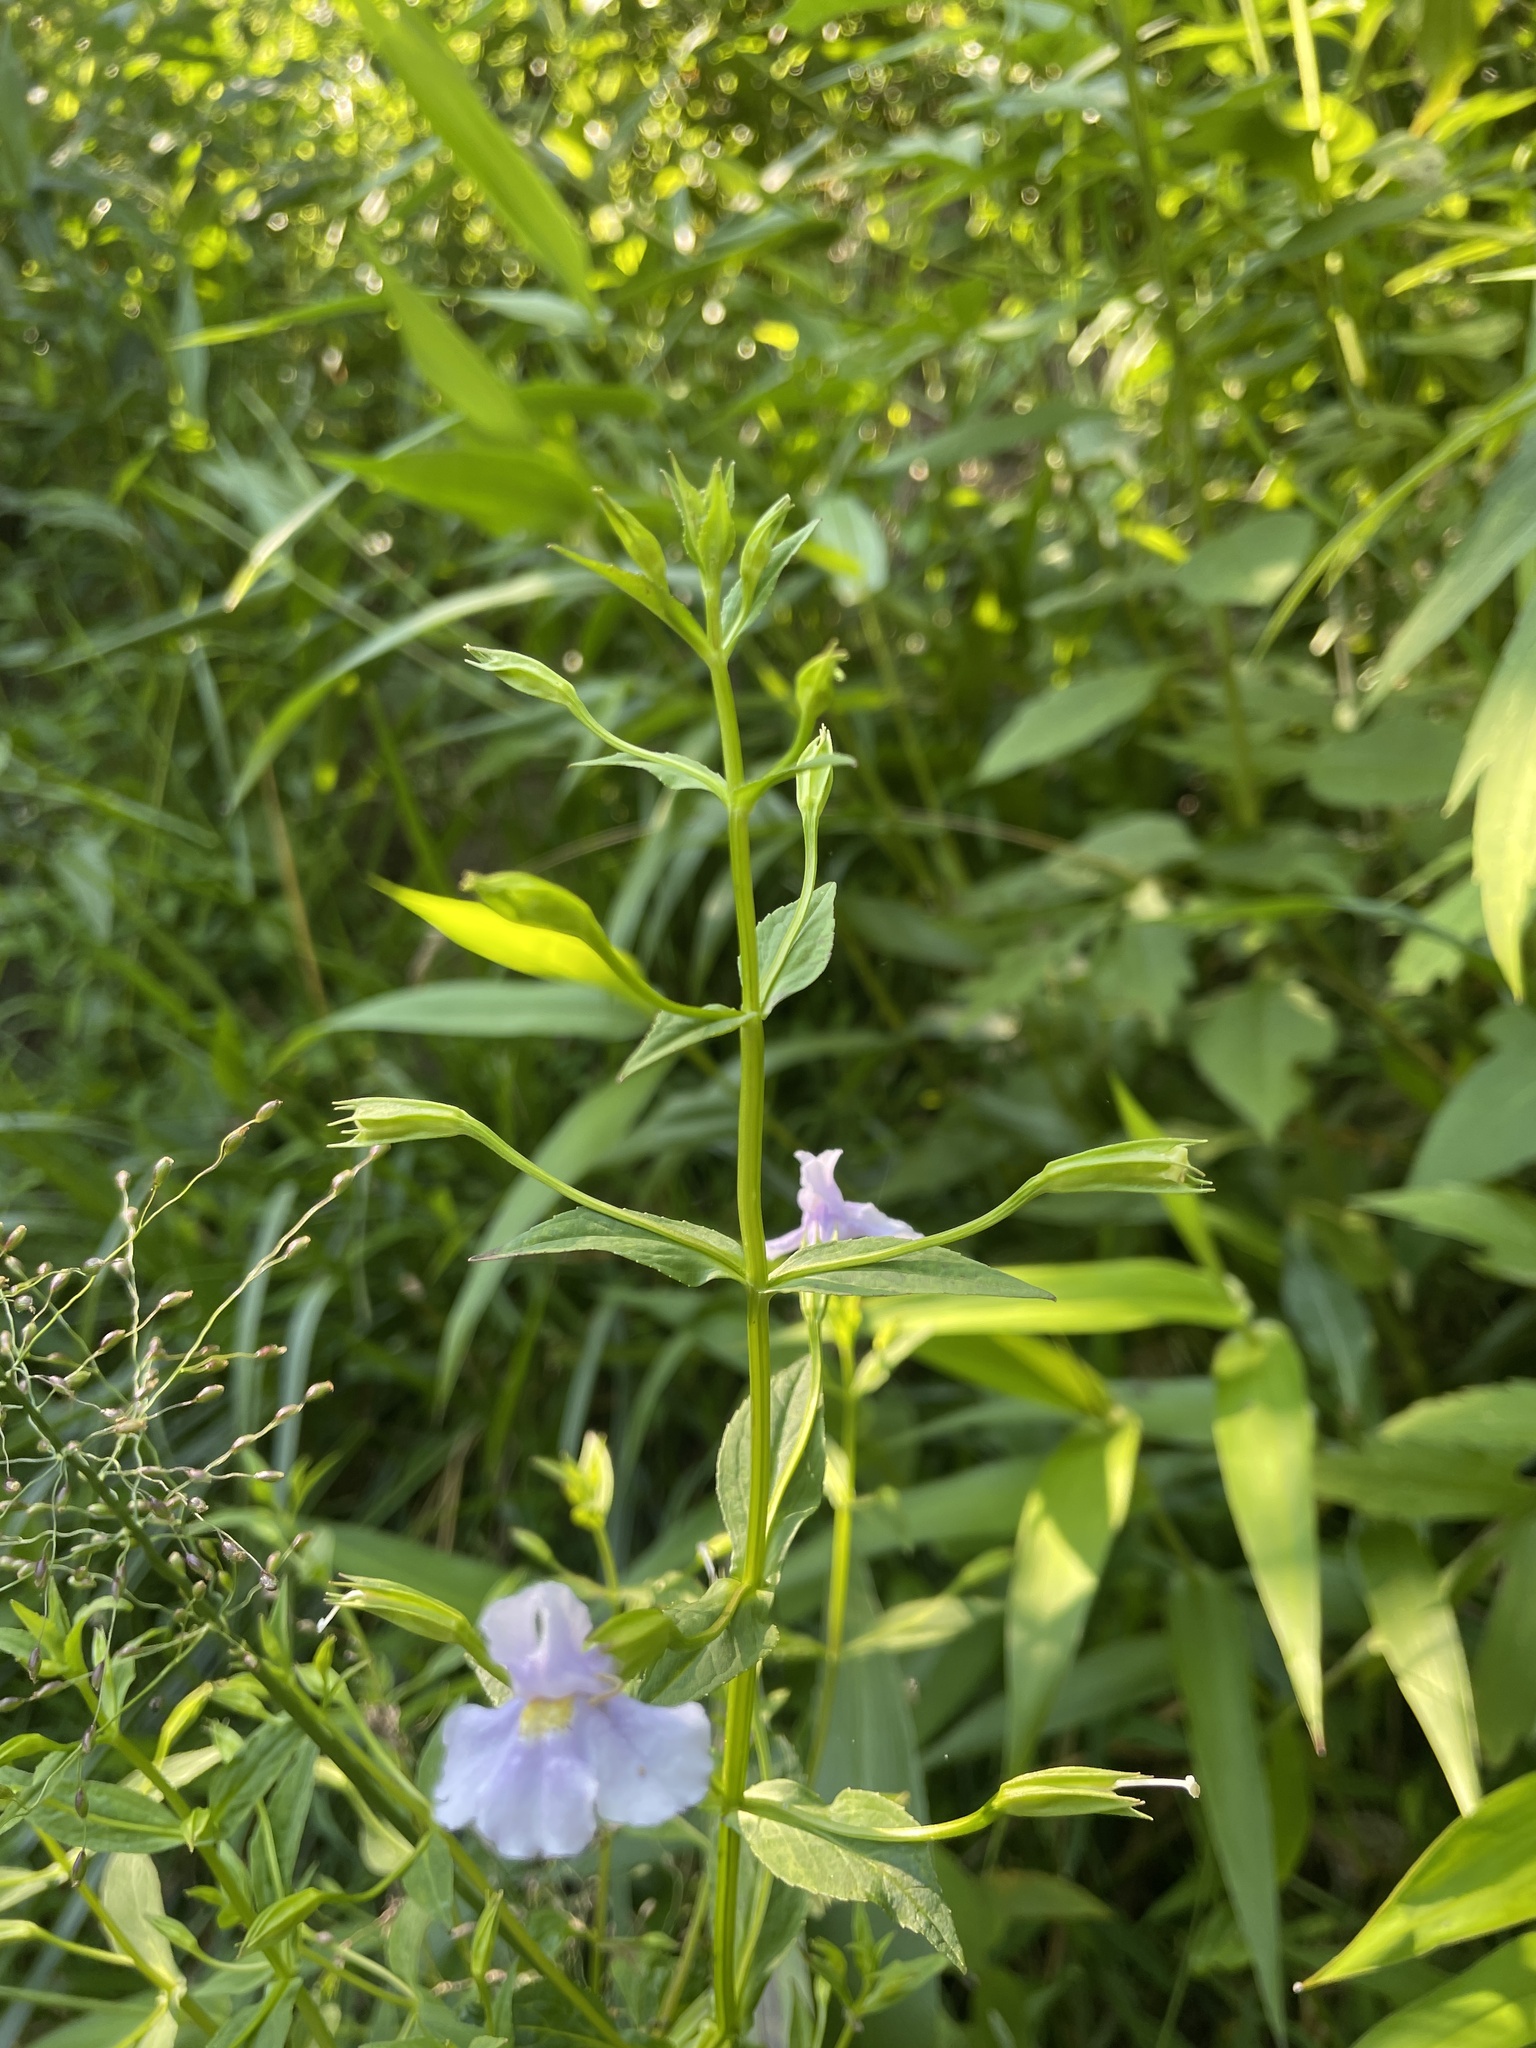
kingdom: Plantae
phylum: Tracheophyta
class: Magnoliopsida
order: Lamiales
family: Phrymaceae
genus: Mimulus
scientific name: Mimulus ringens
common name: Allegheny monkeyflower
